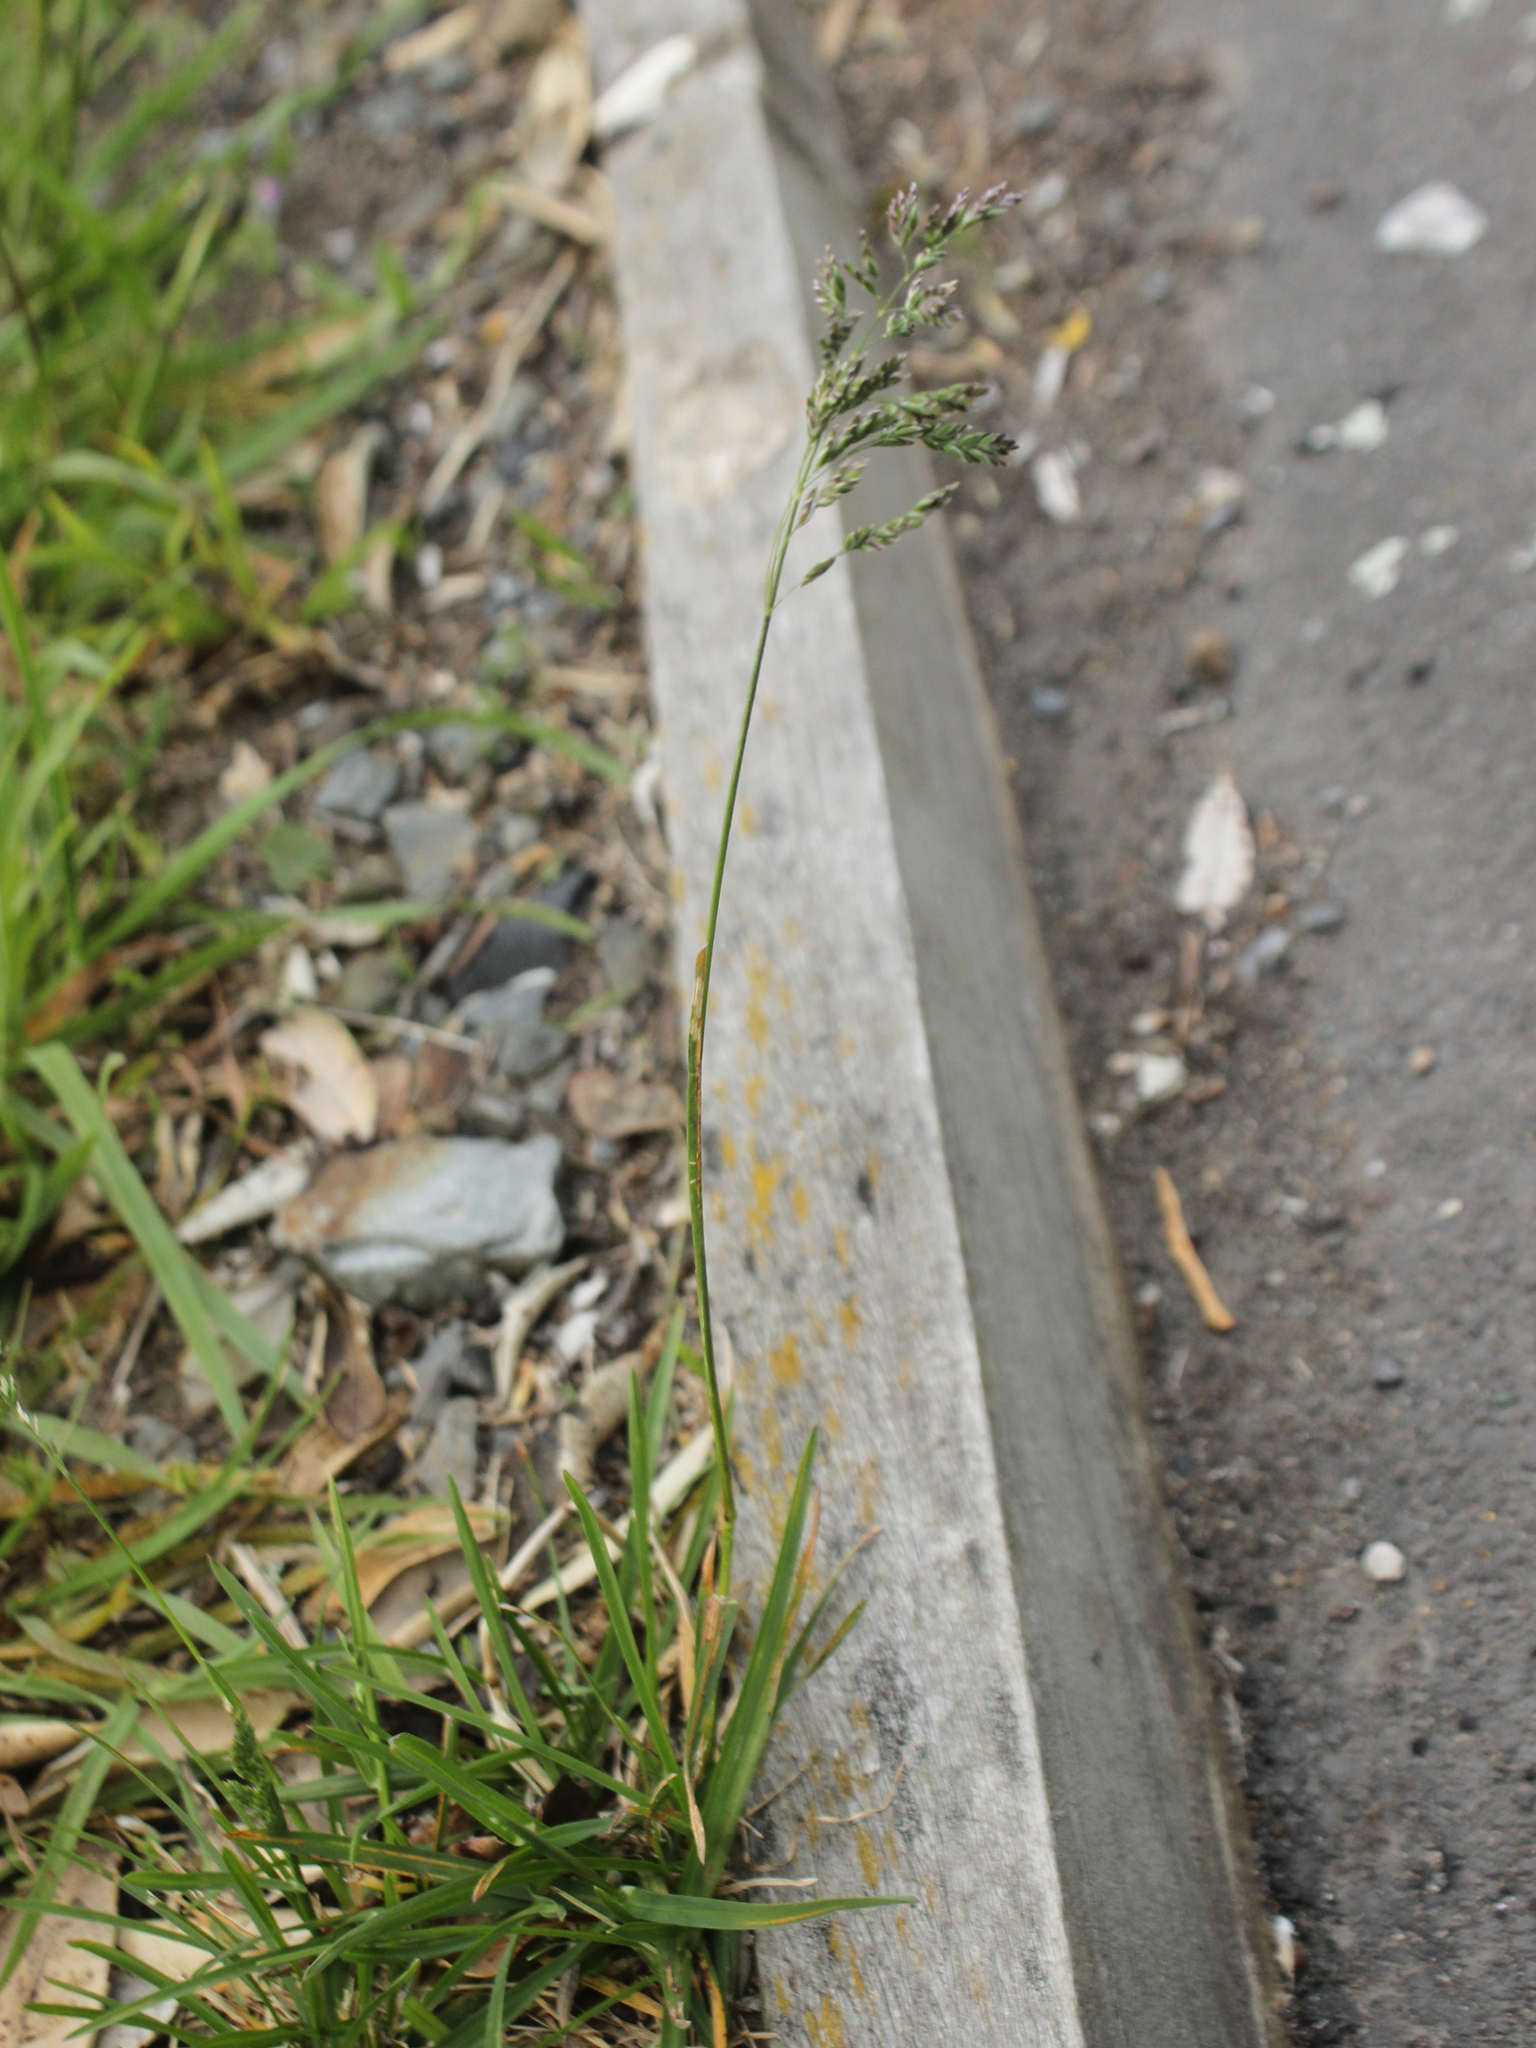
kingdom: Plantae
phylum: Tracheophyta
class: Liliopsida
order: Poales
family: Poaceae
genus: Poa
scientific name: Poa pratensis
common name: Kentucky bluegrass
